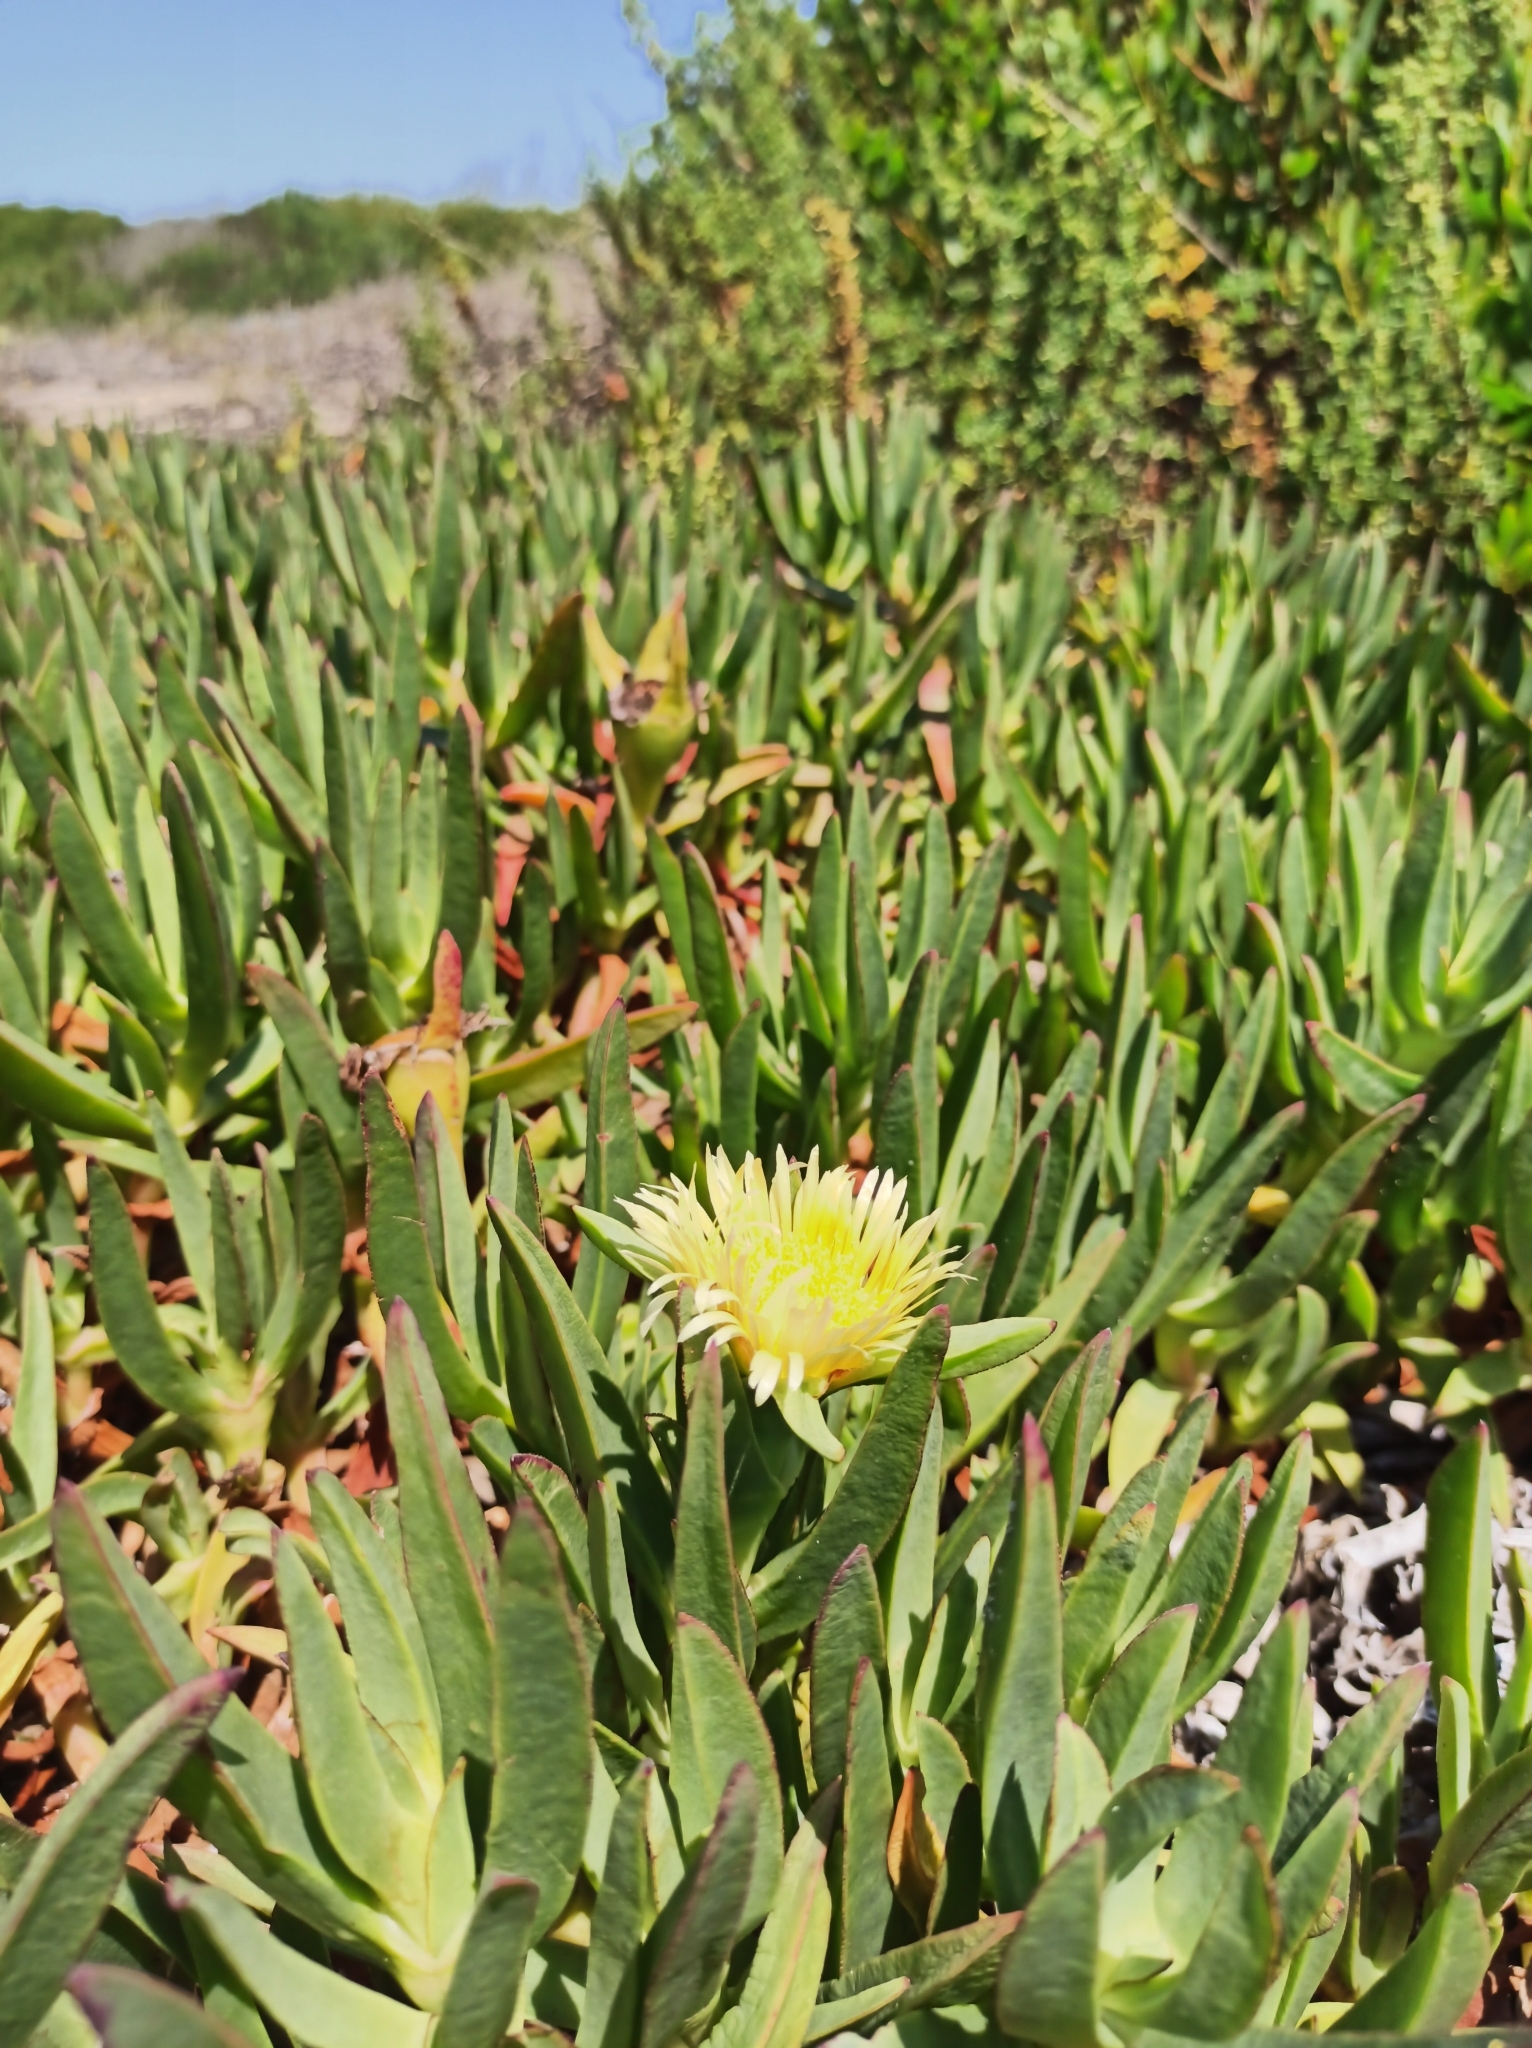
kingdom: Plantae
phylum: Tracheophyta
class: Magnoliopsida
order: Caryophyllales
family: Aizoaceae
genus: Carpobrotus
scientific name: Carpobrotus edulis
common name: Hottentot-fig
